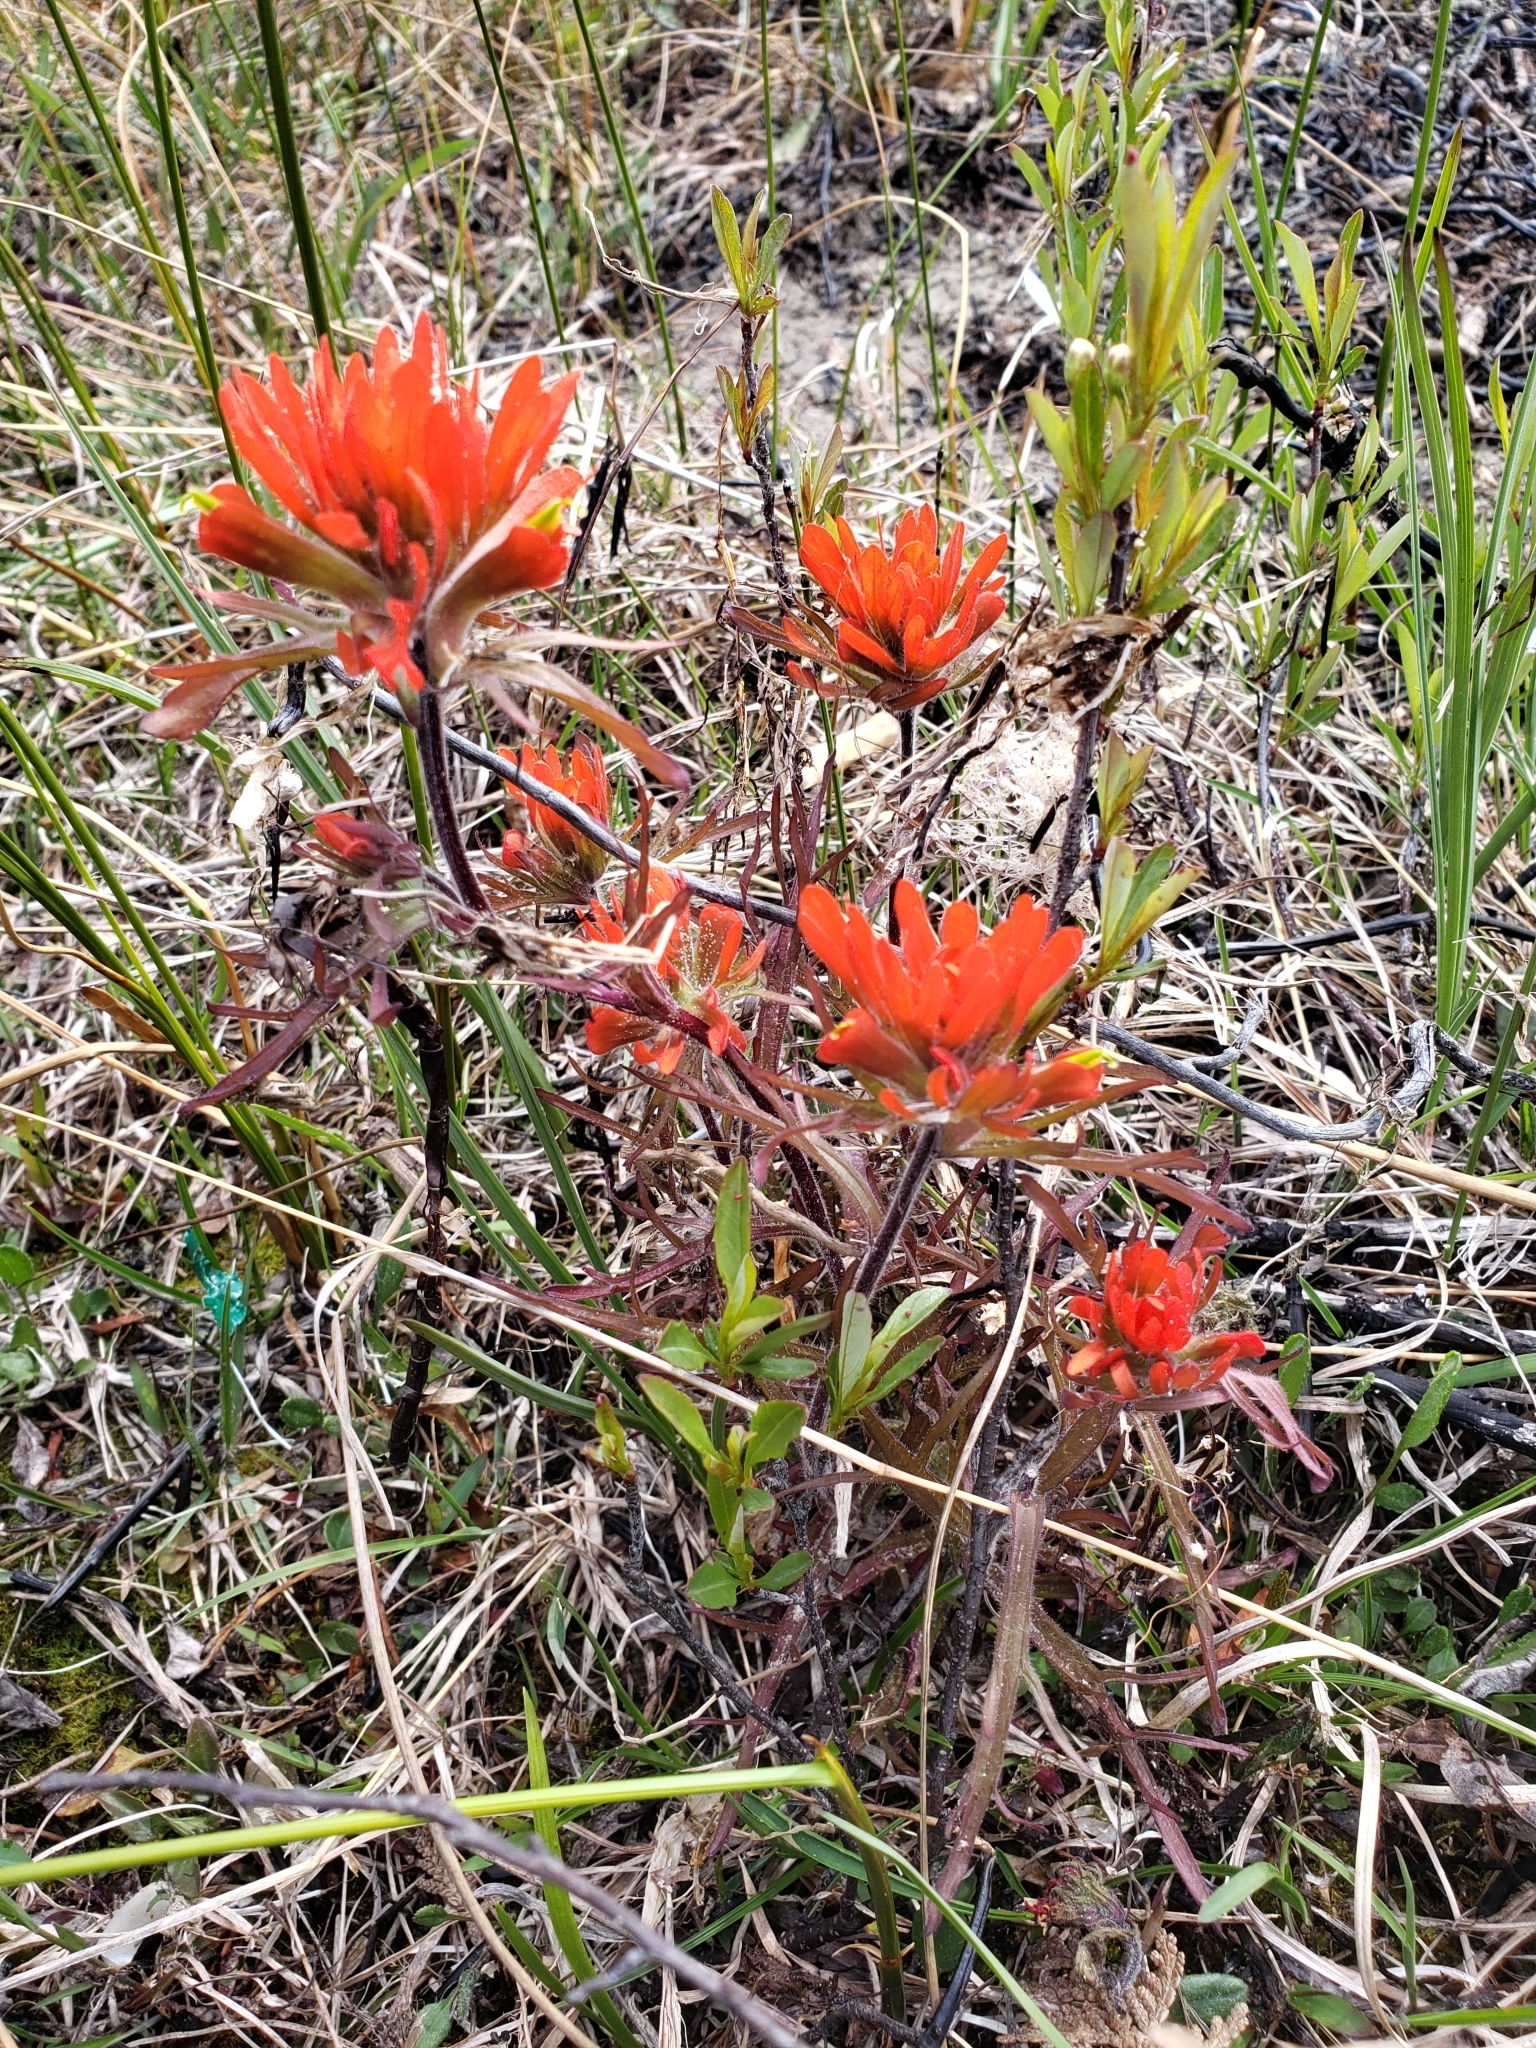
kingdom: Plantae
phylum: Tracheophyta
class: Magnoliopsida
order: Lamiales
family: Orobanchaceae
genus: Castilleja
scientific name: Castilleja coccinea
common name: Scarlet paintbrush
